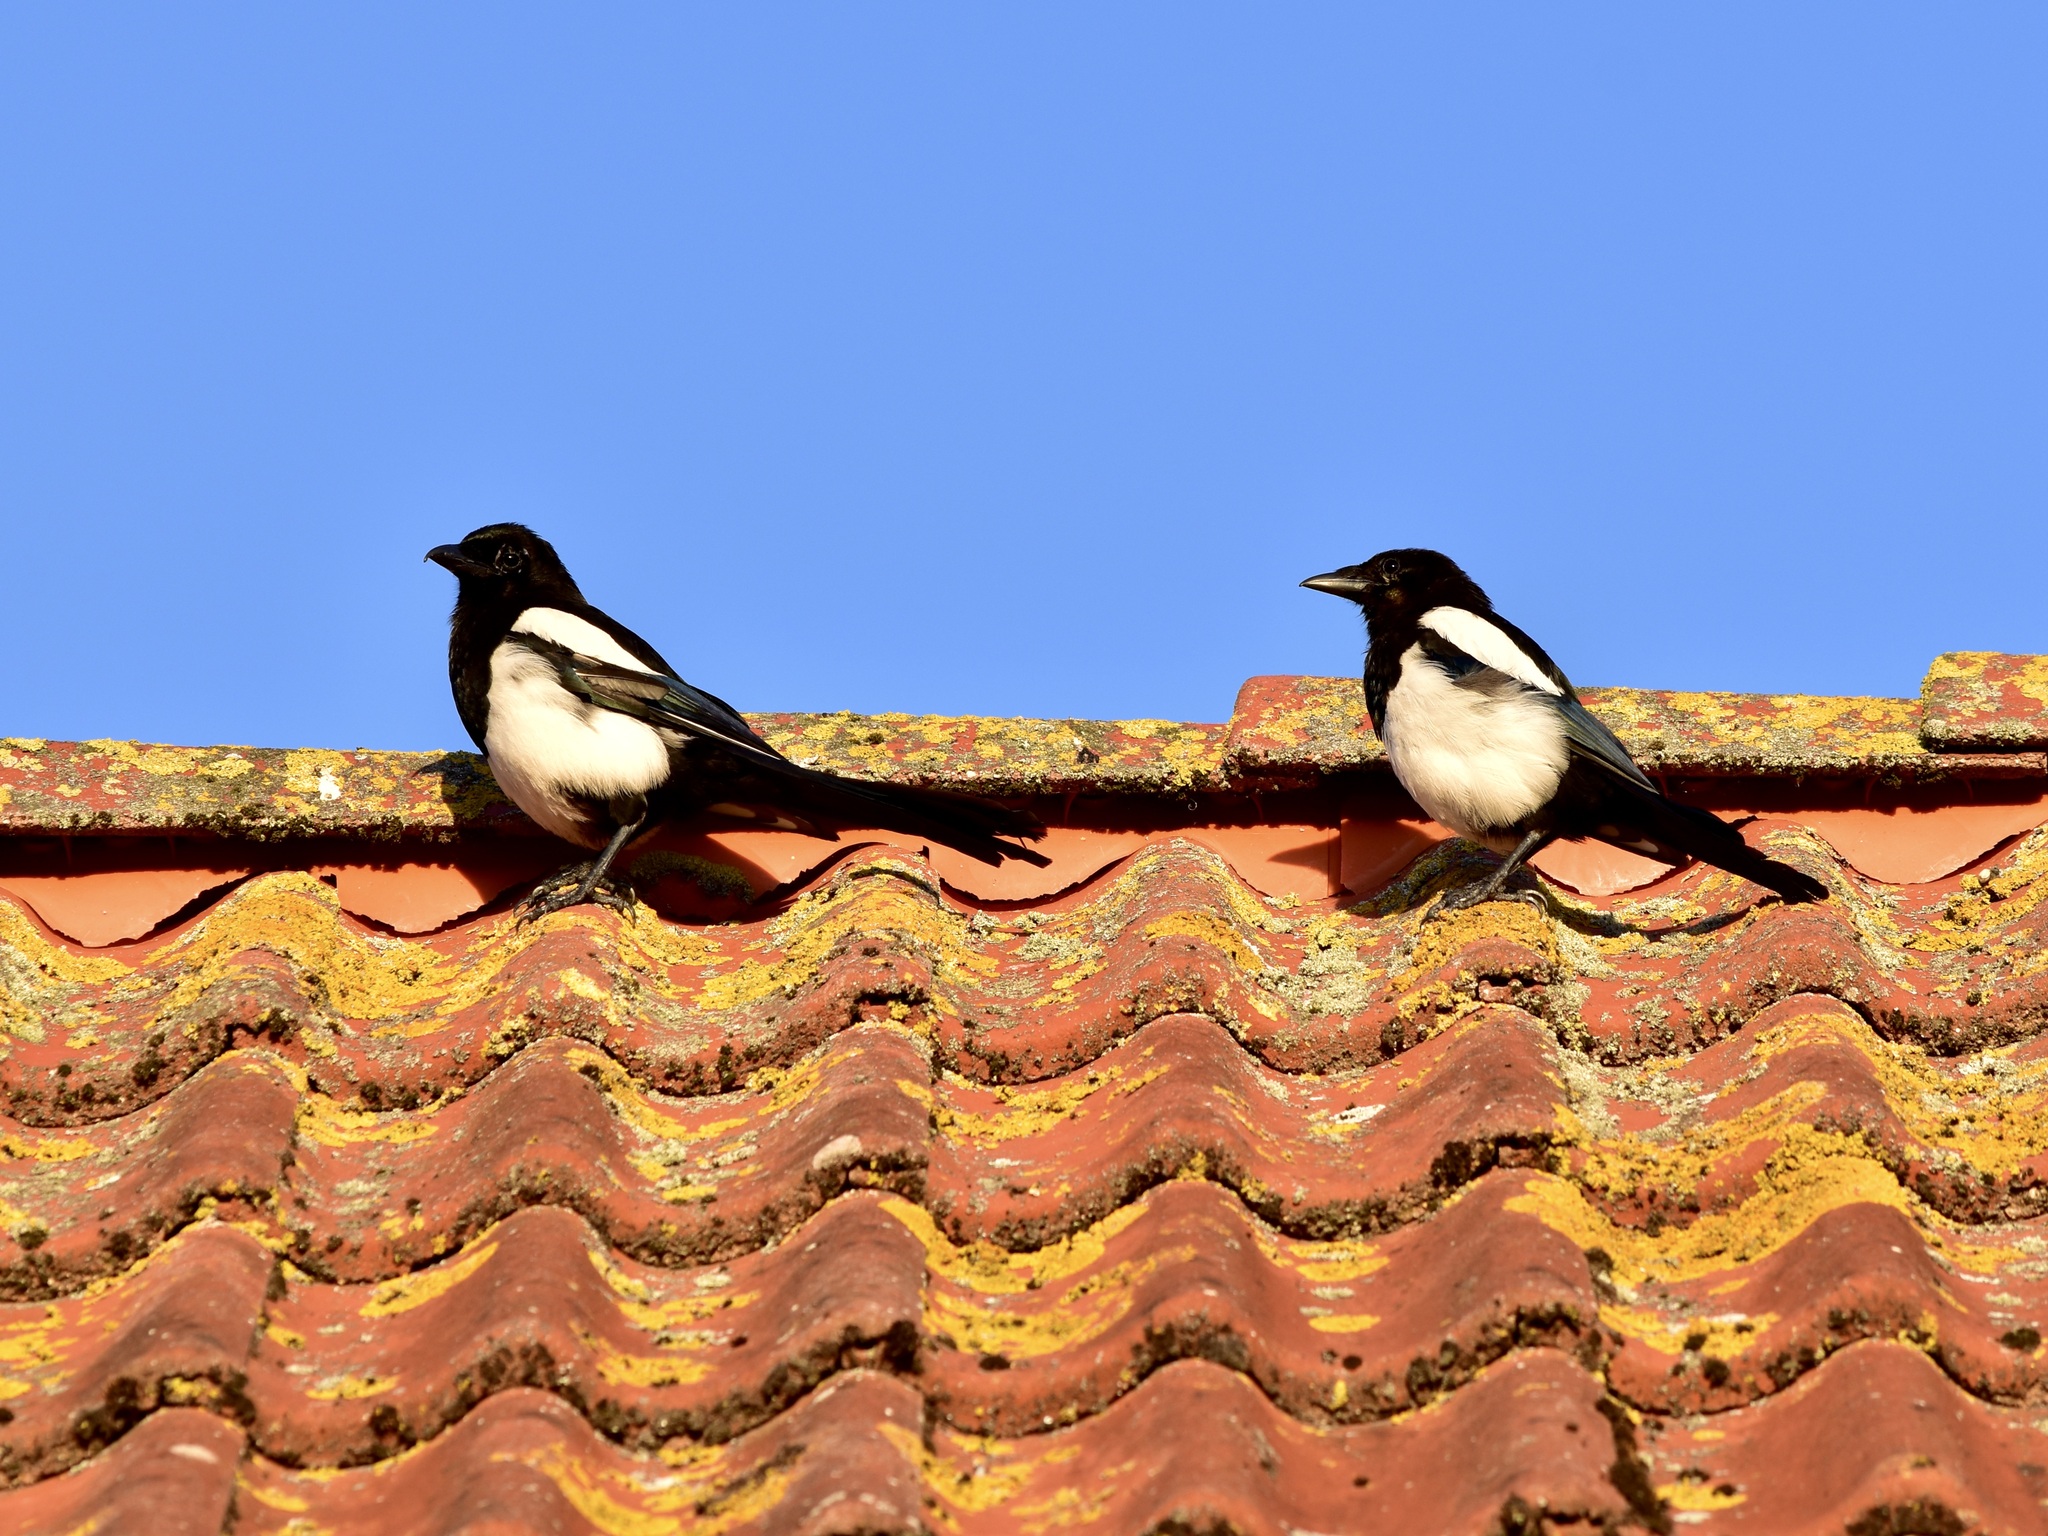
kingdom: Animalia
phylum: Chordata
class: Aves
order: Passeriformes
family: Corvidae
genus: Pica
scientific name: Pica pica
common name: Eurasian magpie
